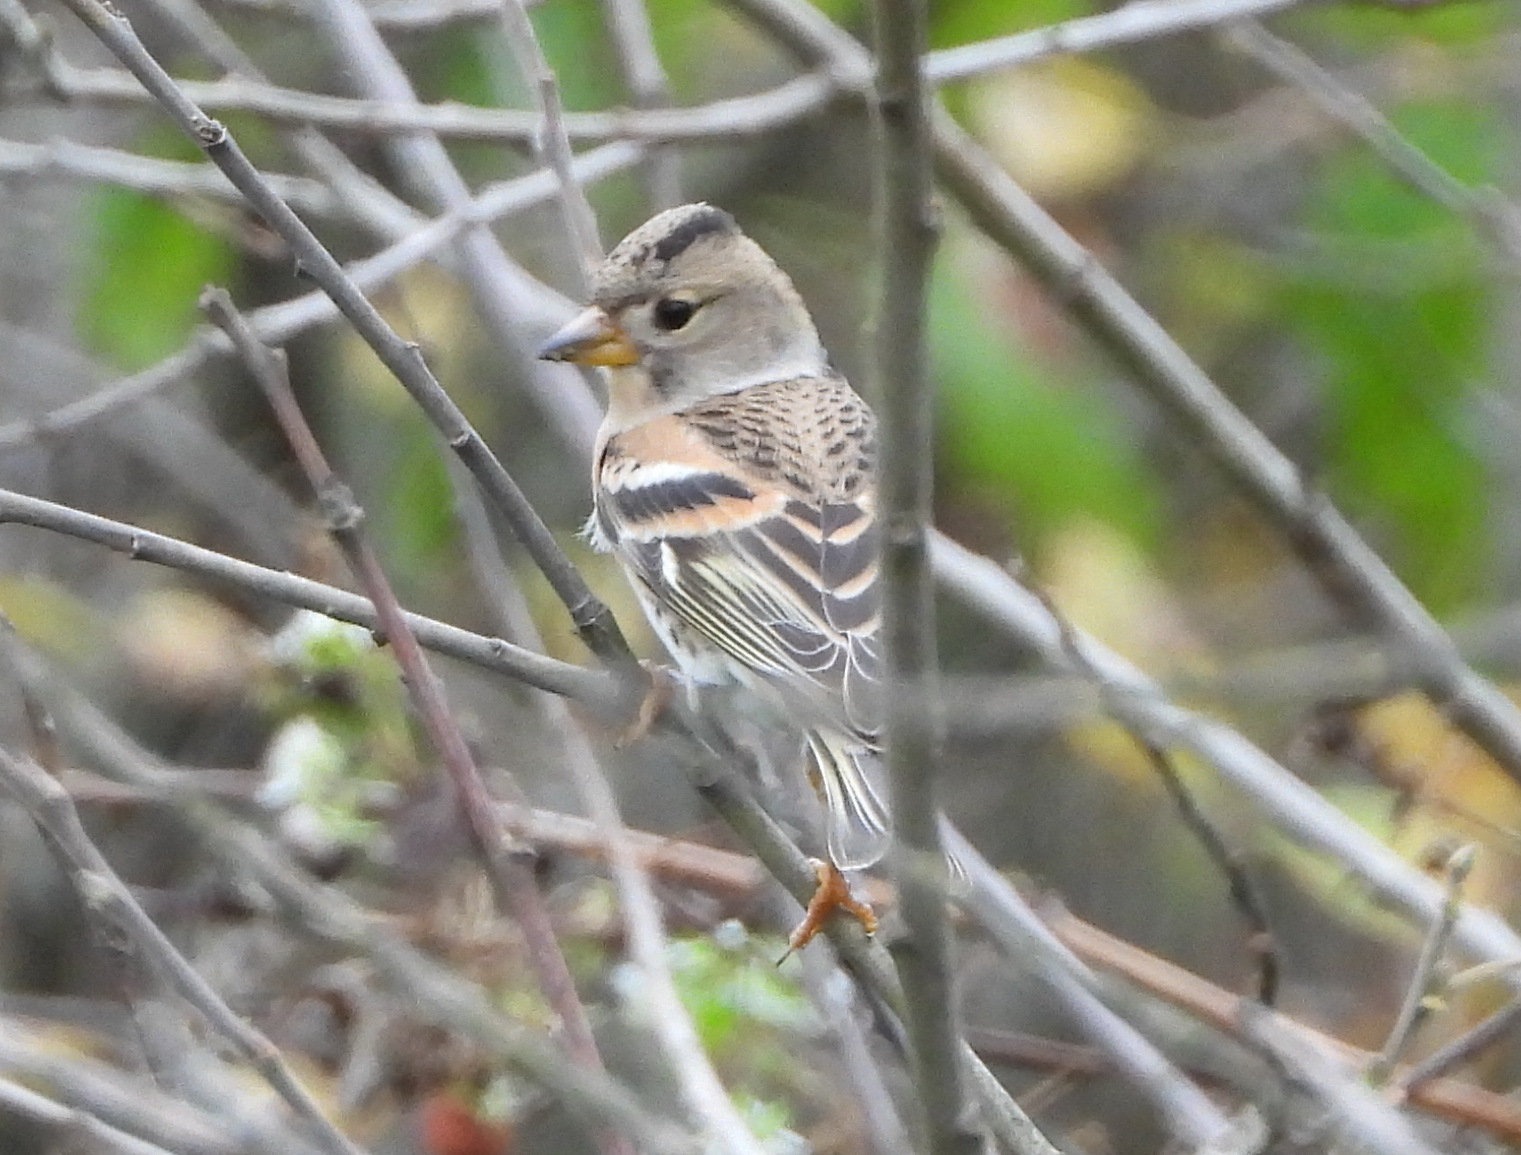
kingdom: Animalia
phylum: Chordata
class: Aves
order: Passeriformes
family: Fringillidae
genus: Fringilla
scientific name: Fringilla montifringilla
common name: Brambling
